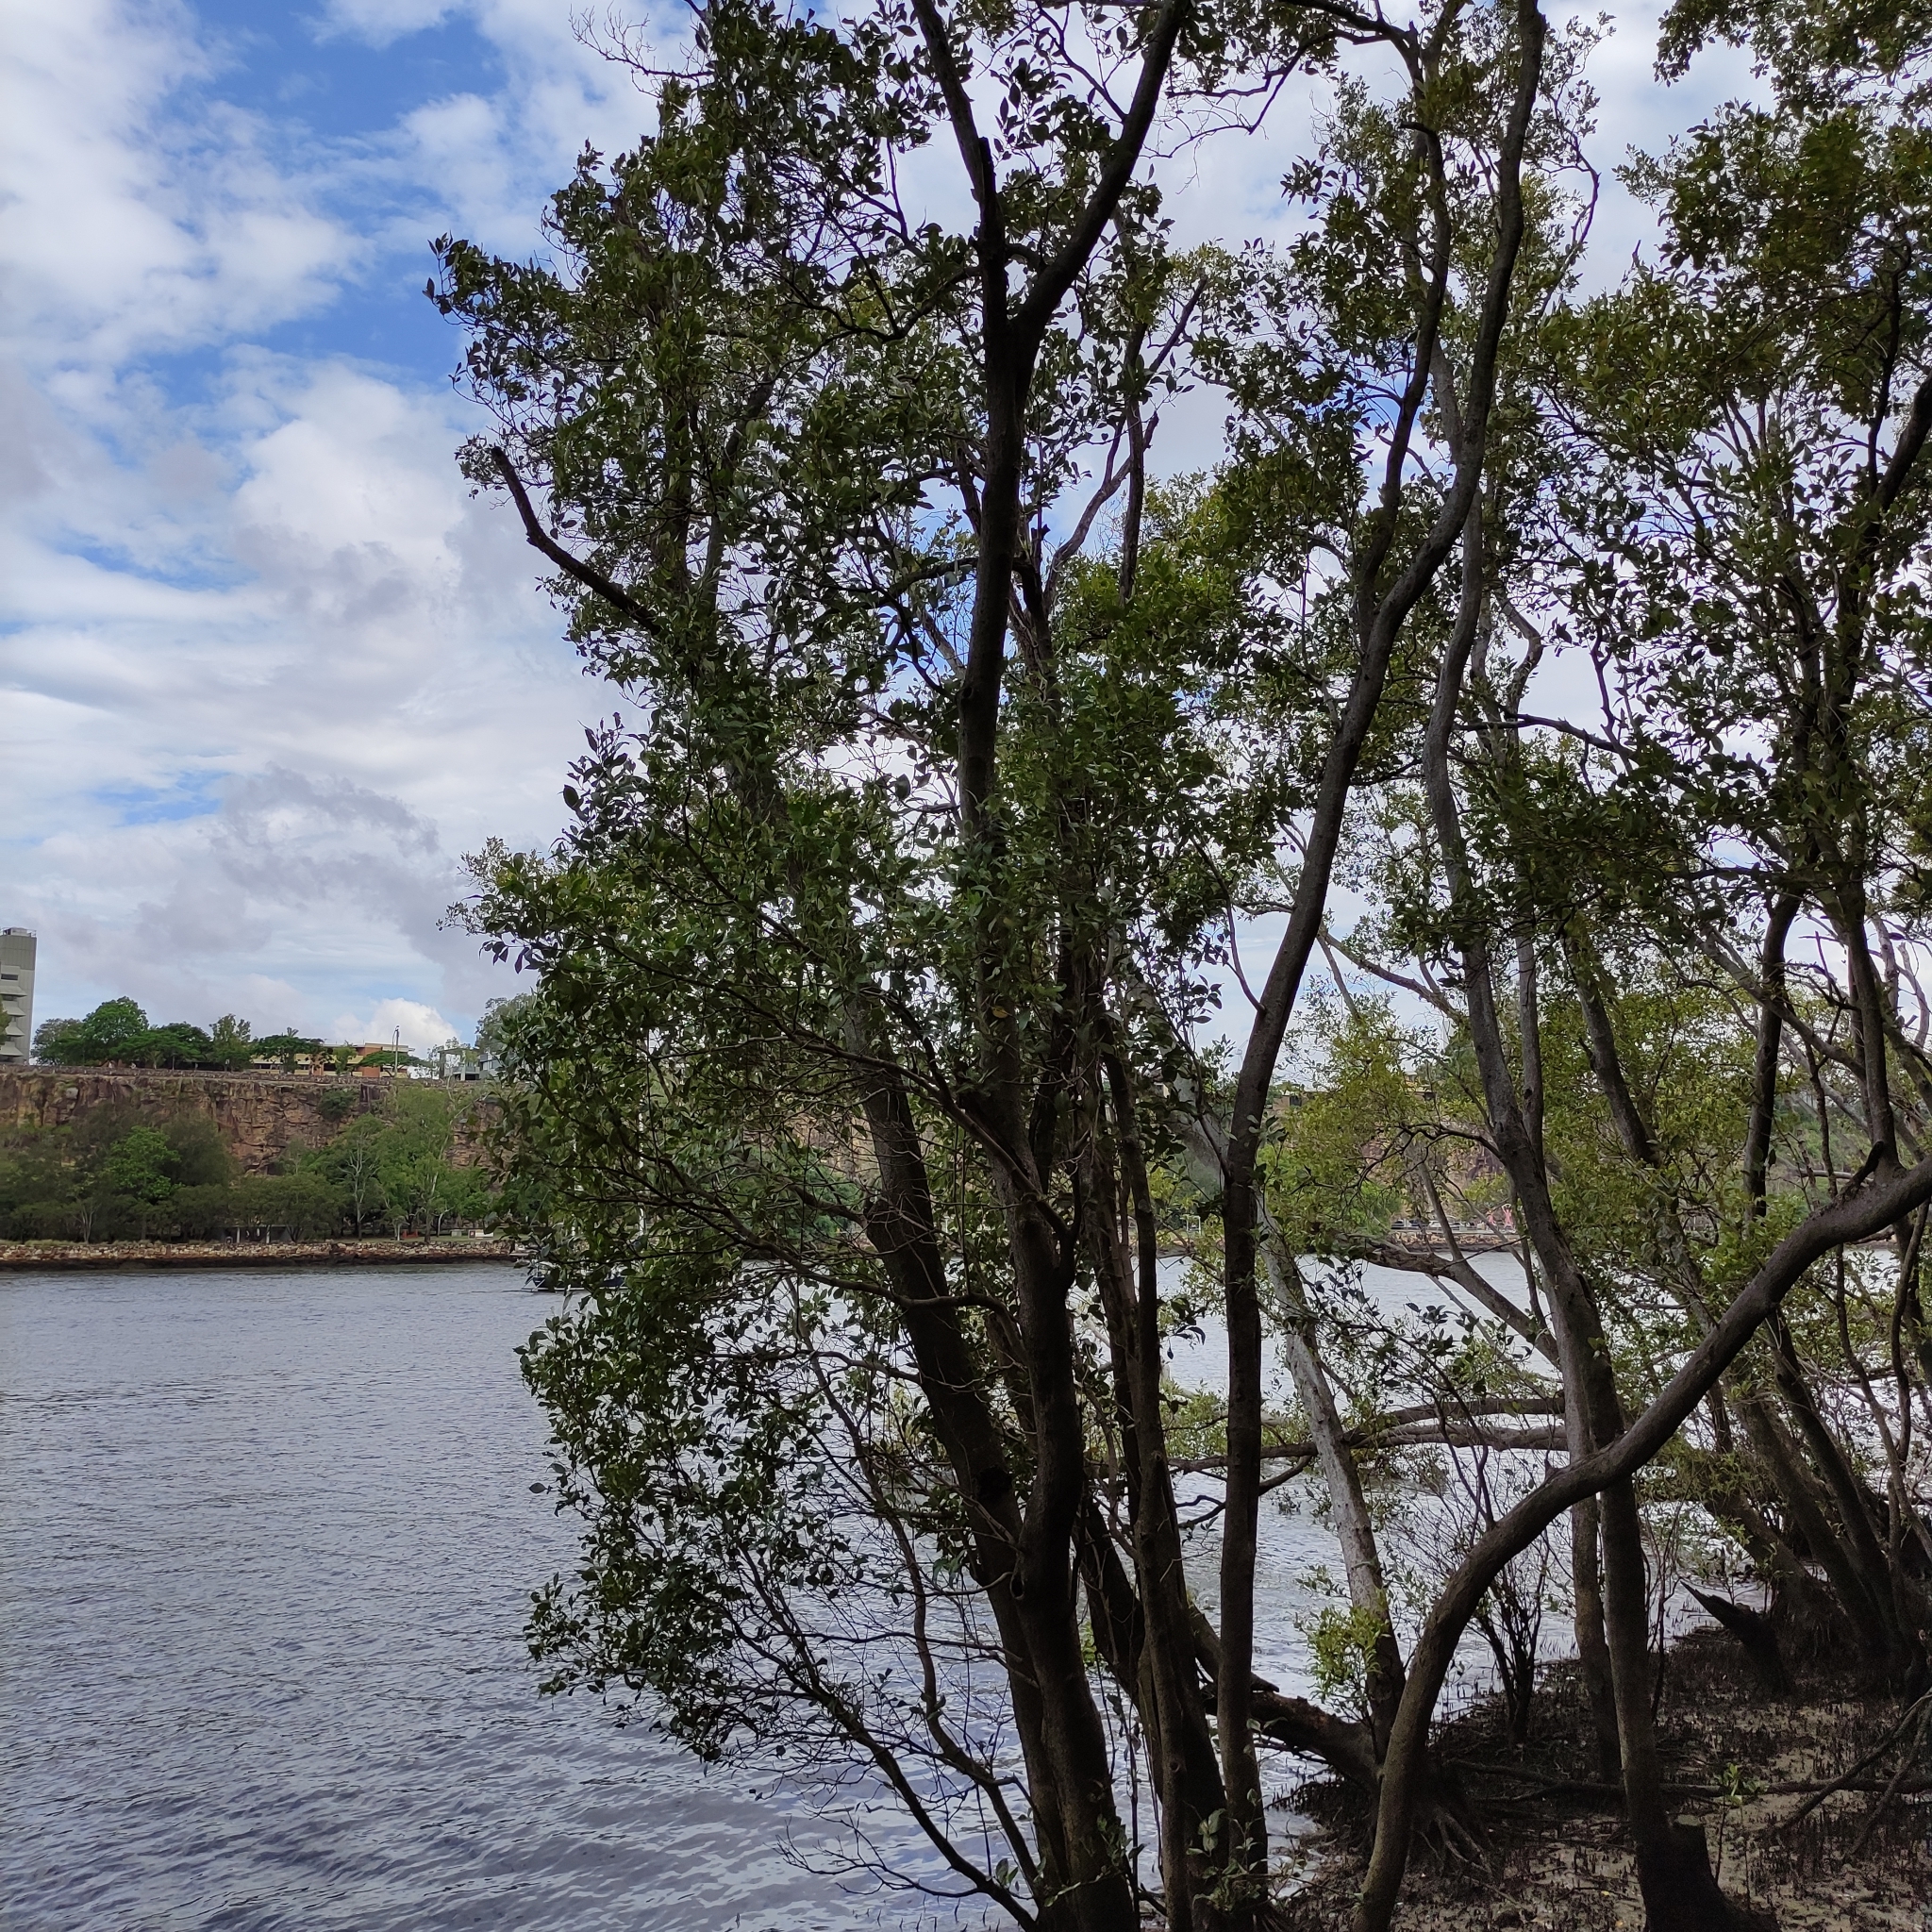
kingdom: Plantae
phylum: Tracheophyta
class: Magnoliopsida
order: Lamiales
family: Acanthaceae
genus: Avicennia
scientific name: Avicennia marina
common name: Gray mangrove
